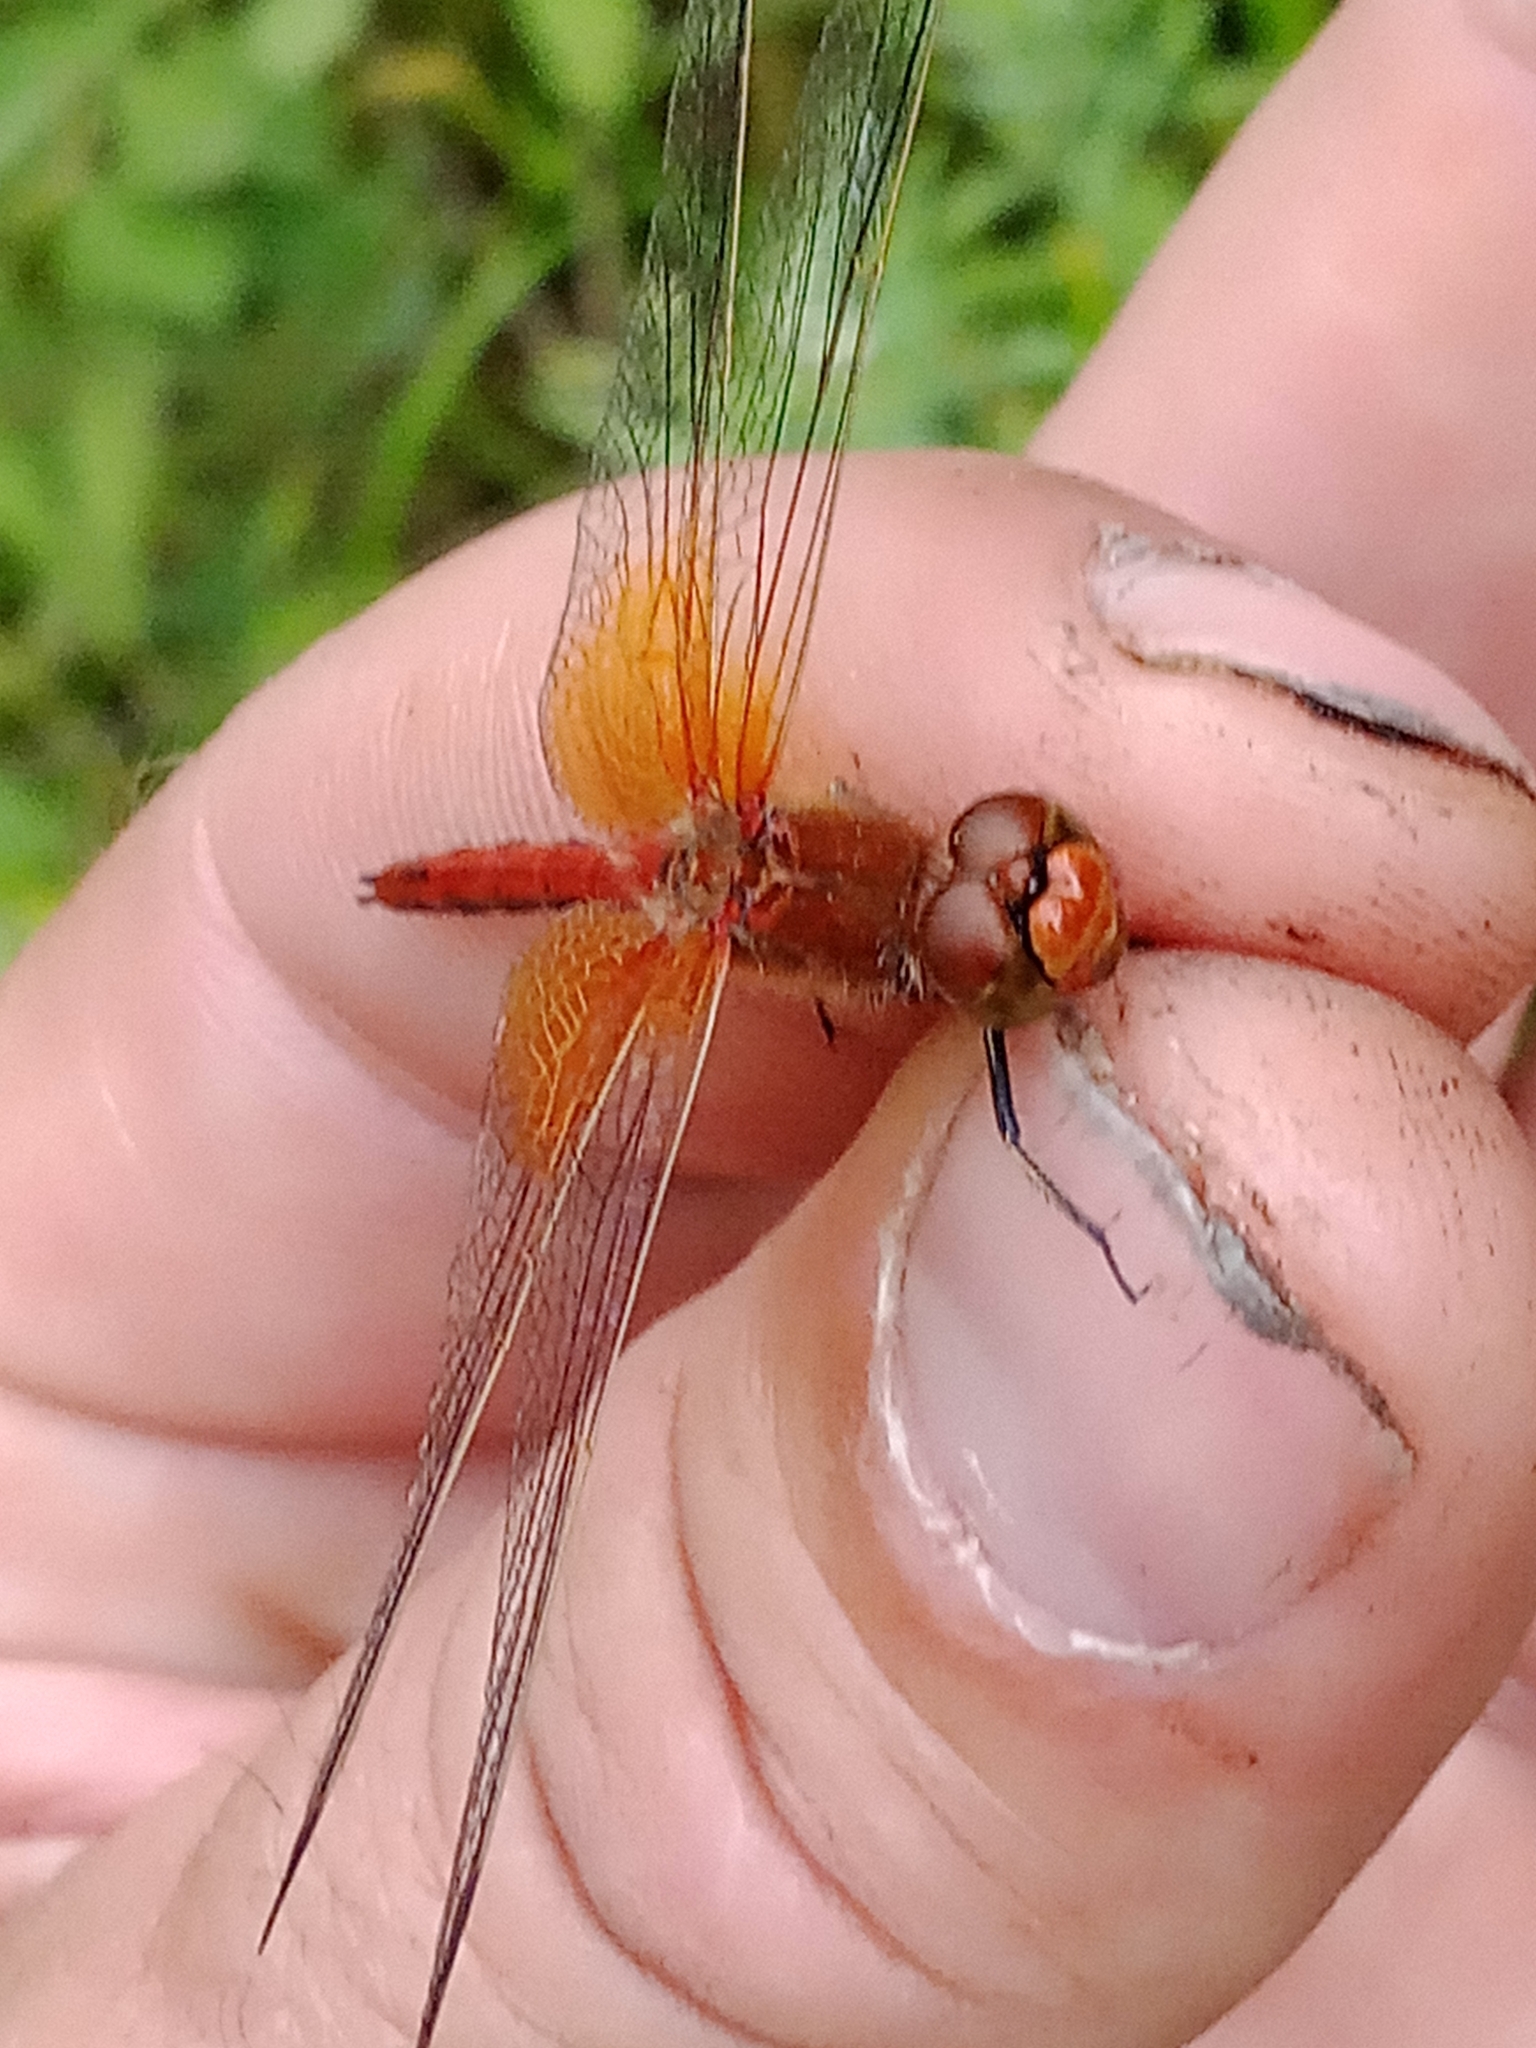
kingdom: Animalia
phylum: Arthropoda
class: Insecta
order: Odonata
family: Libellulidae
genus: Sympetrum
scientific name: Sympetrum flaveolum
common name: Yellow-winged darter
